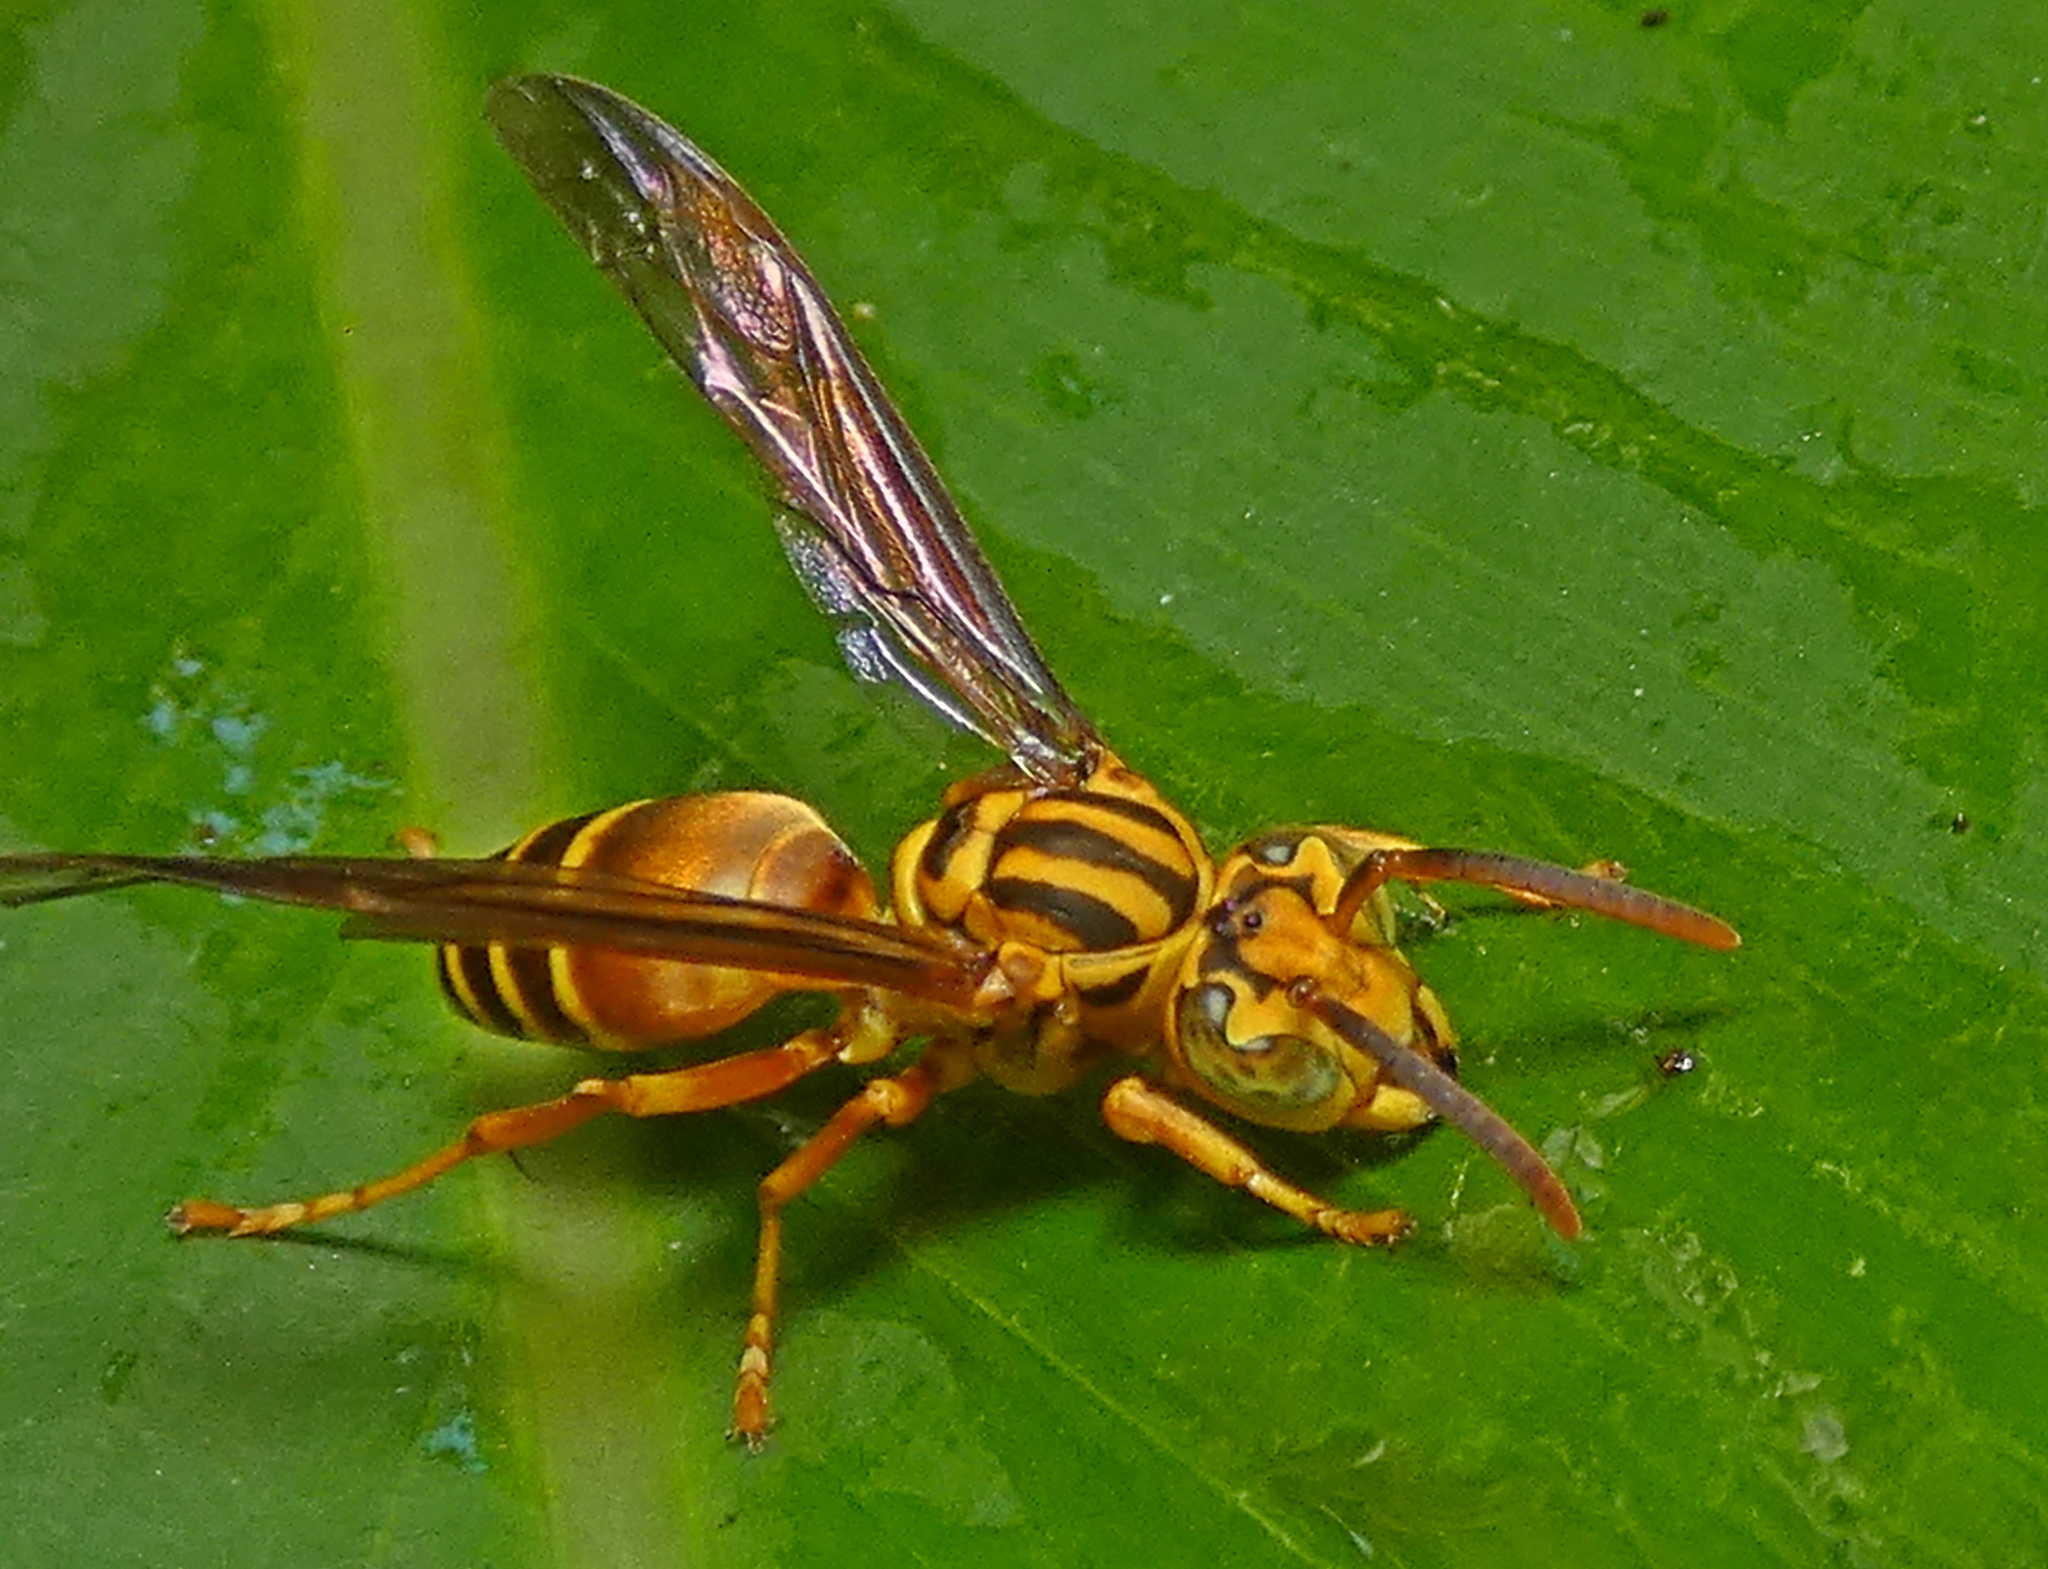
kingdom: Animalia
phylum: Arthropoda
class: Insecta
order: Hymenoptera
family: Vespidae
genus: Parachartergus
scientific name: Parachartergus vespiceps
